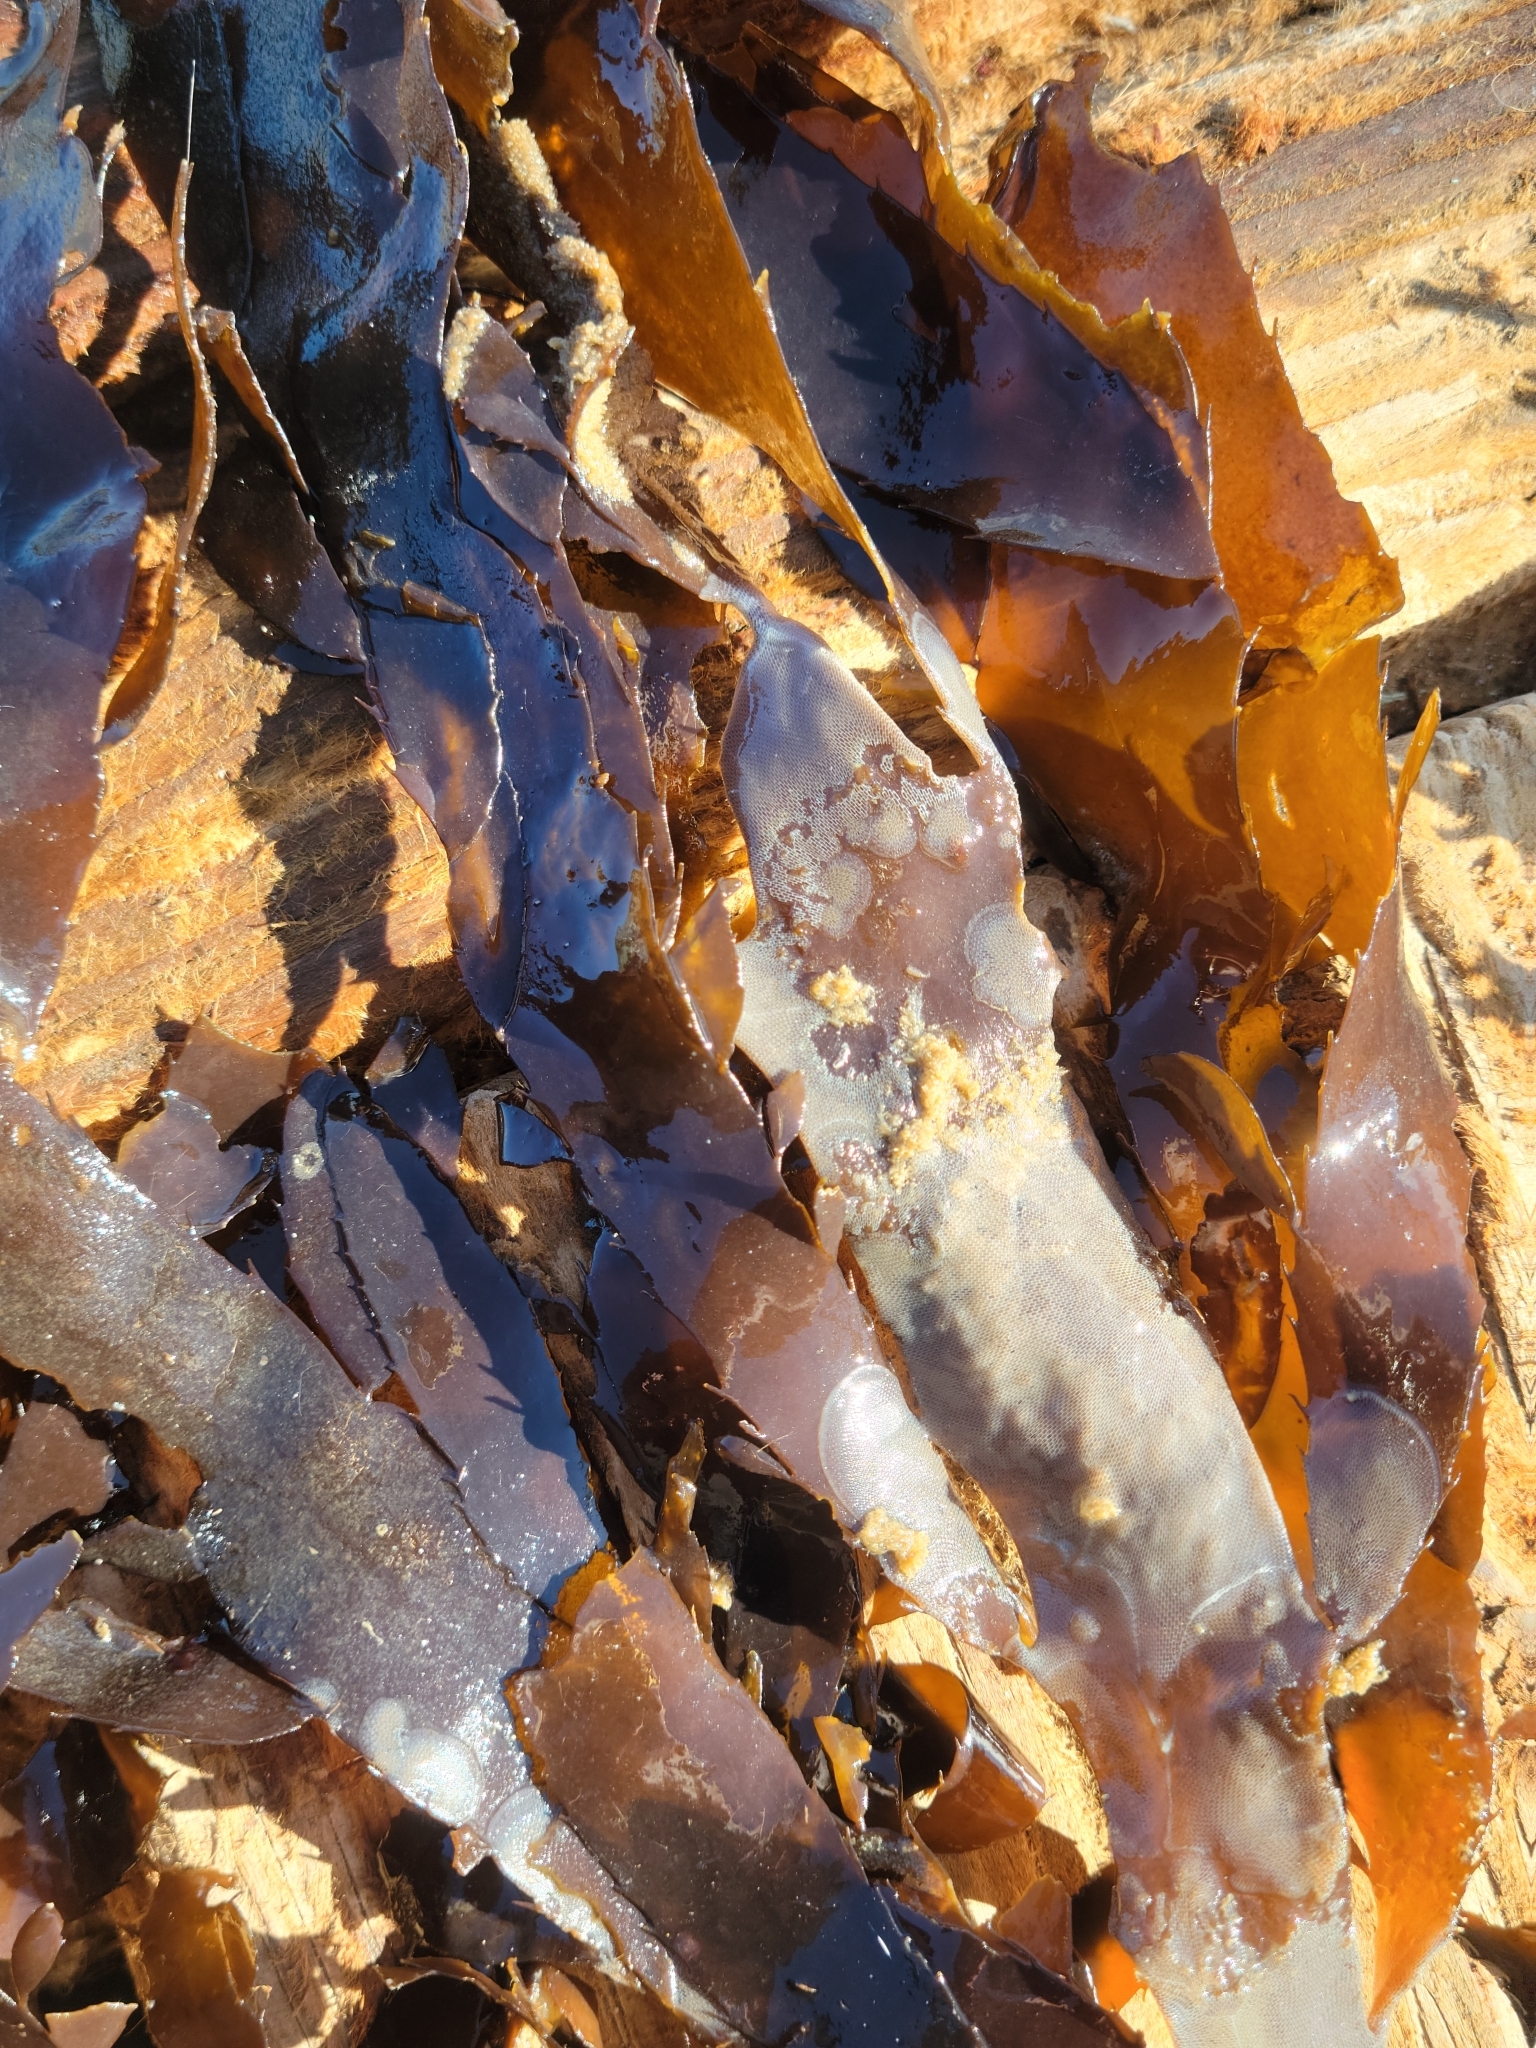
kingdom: Chromista
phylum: Ochrophyta
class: Phaeophyceae
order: Desmarestiales
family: Desmarestiaceae
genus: Desmarestia
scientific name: Desmarestia ligulata
